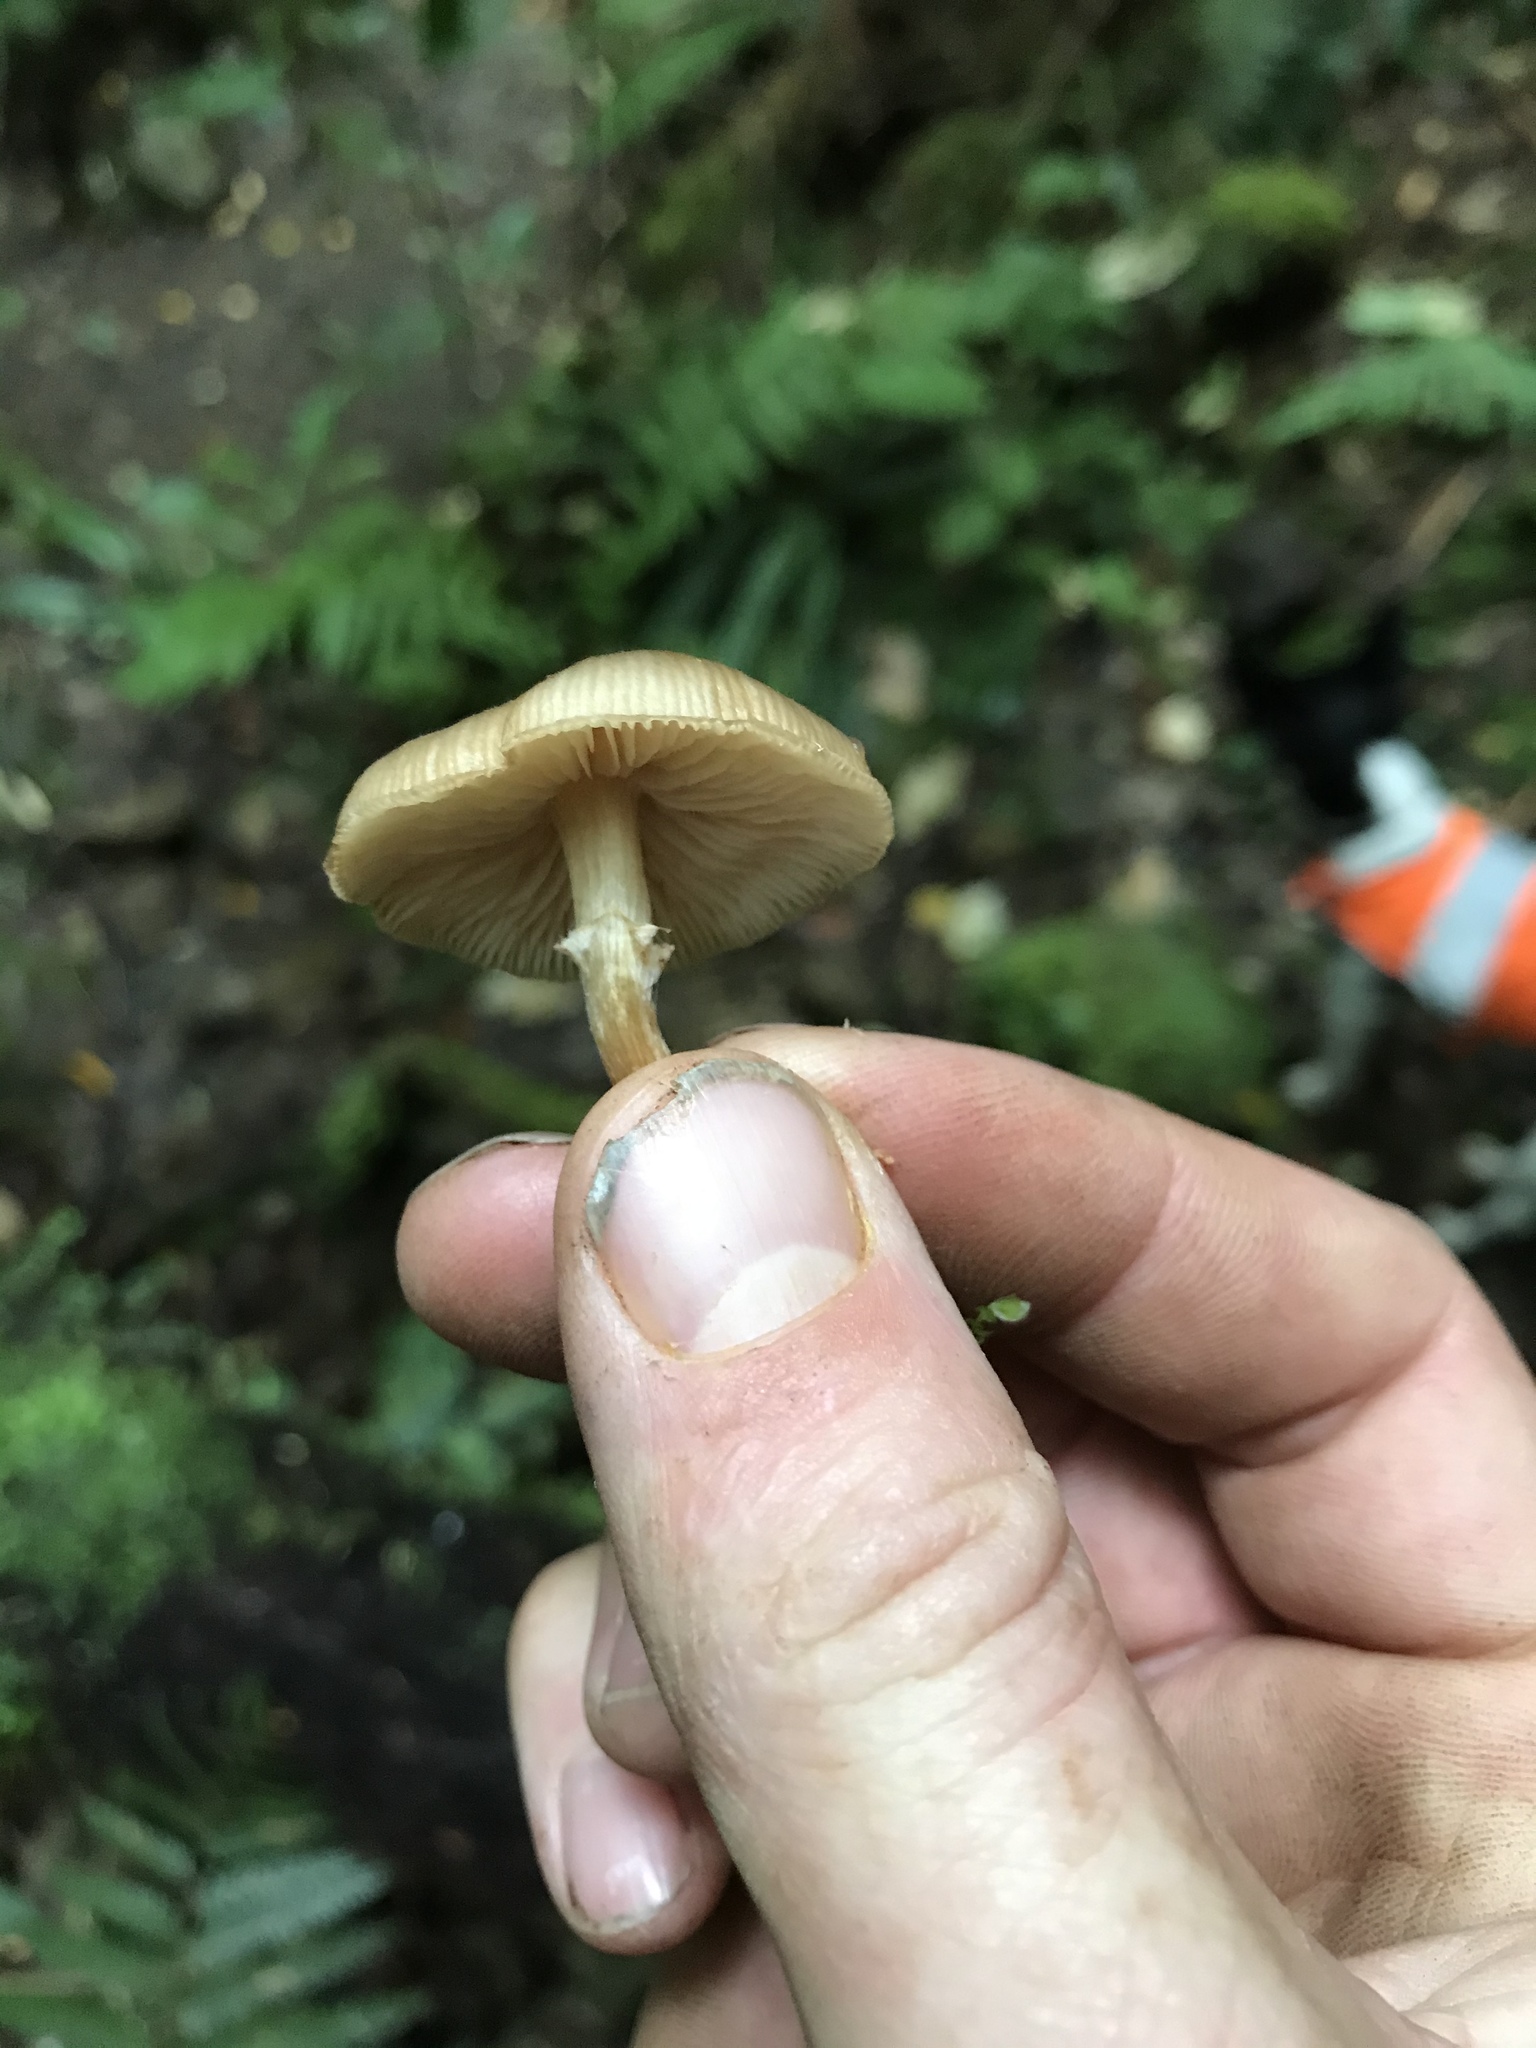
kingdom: Fungi
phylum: Basidiomycota
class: Agaricomycetes
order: Agaricales
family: Physalacriaceae
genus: Armillaria
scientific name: Armillaria novae-zelandiae
